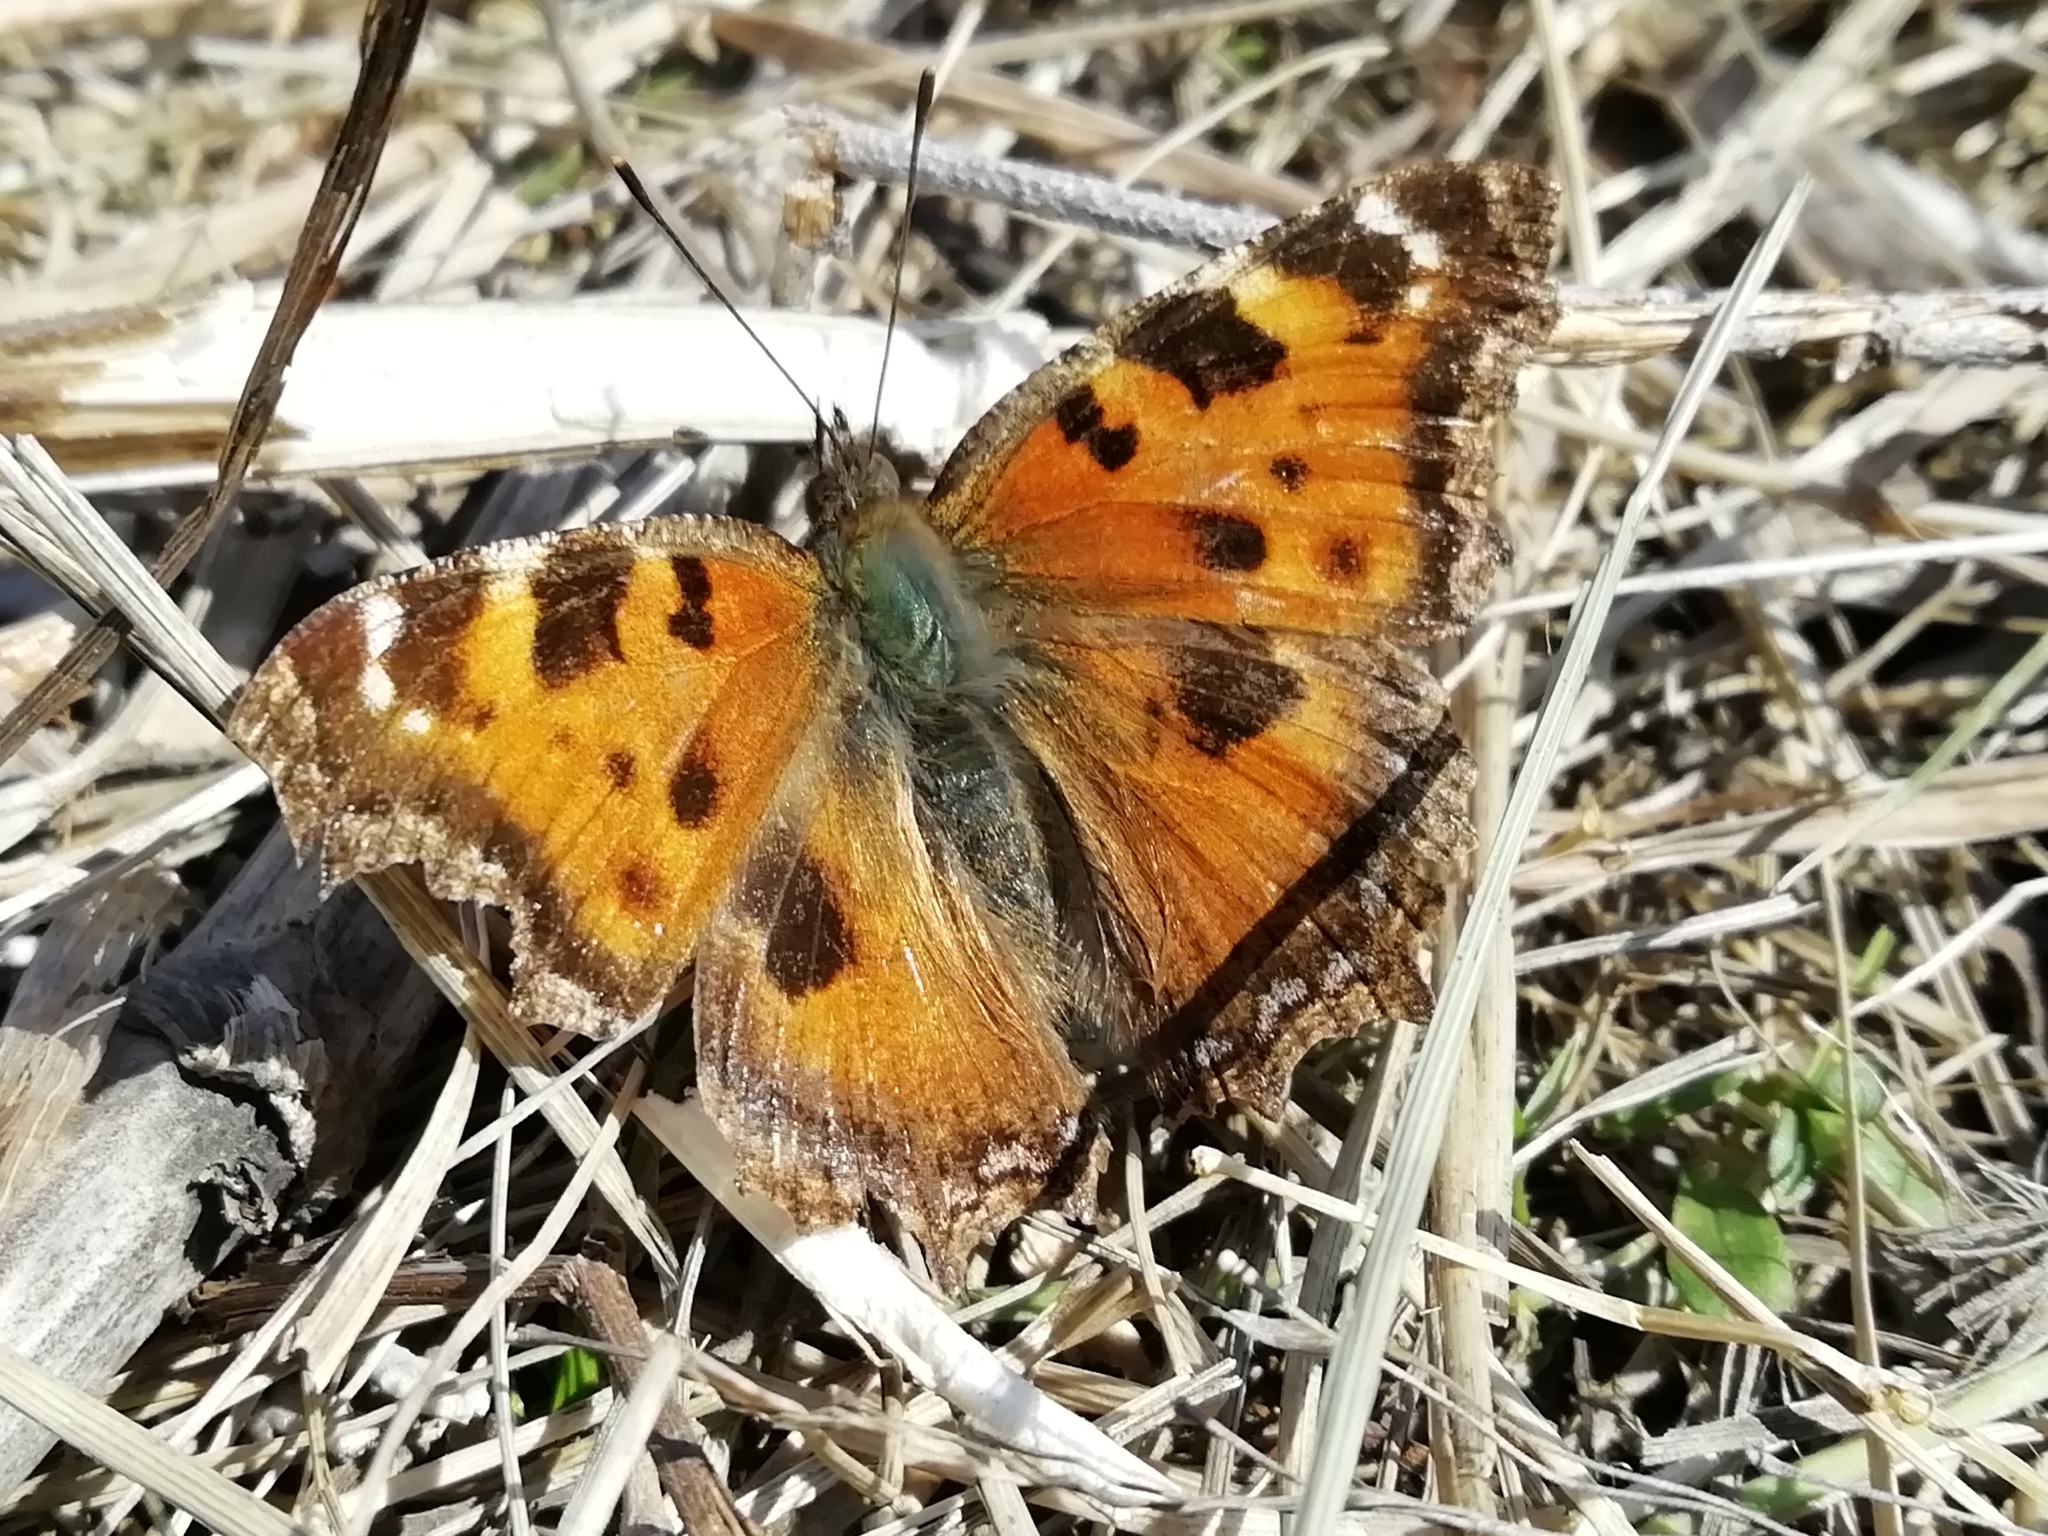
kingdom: Animalia
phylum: Arthropoda
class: Insecta
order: Lepidoptera
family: Nymphalidae
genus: Nymphalis
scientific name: Nymphalis xanthomelas
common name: Scarce tortoiseshell
